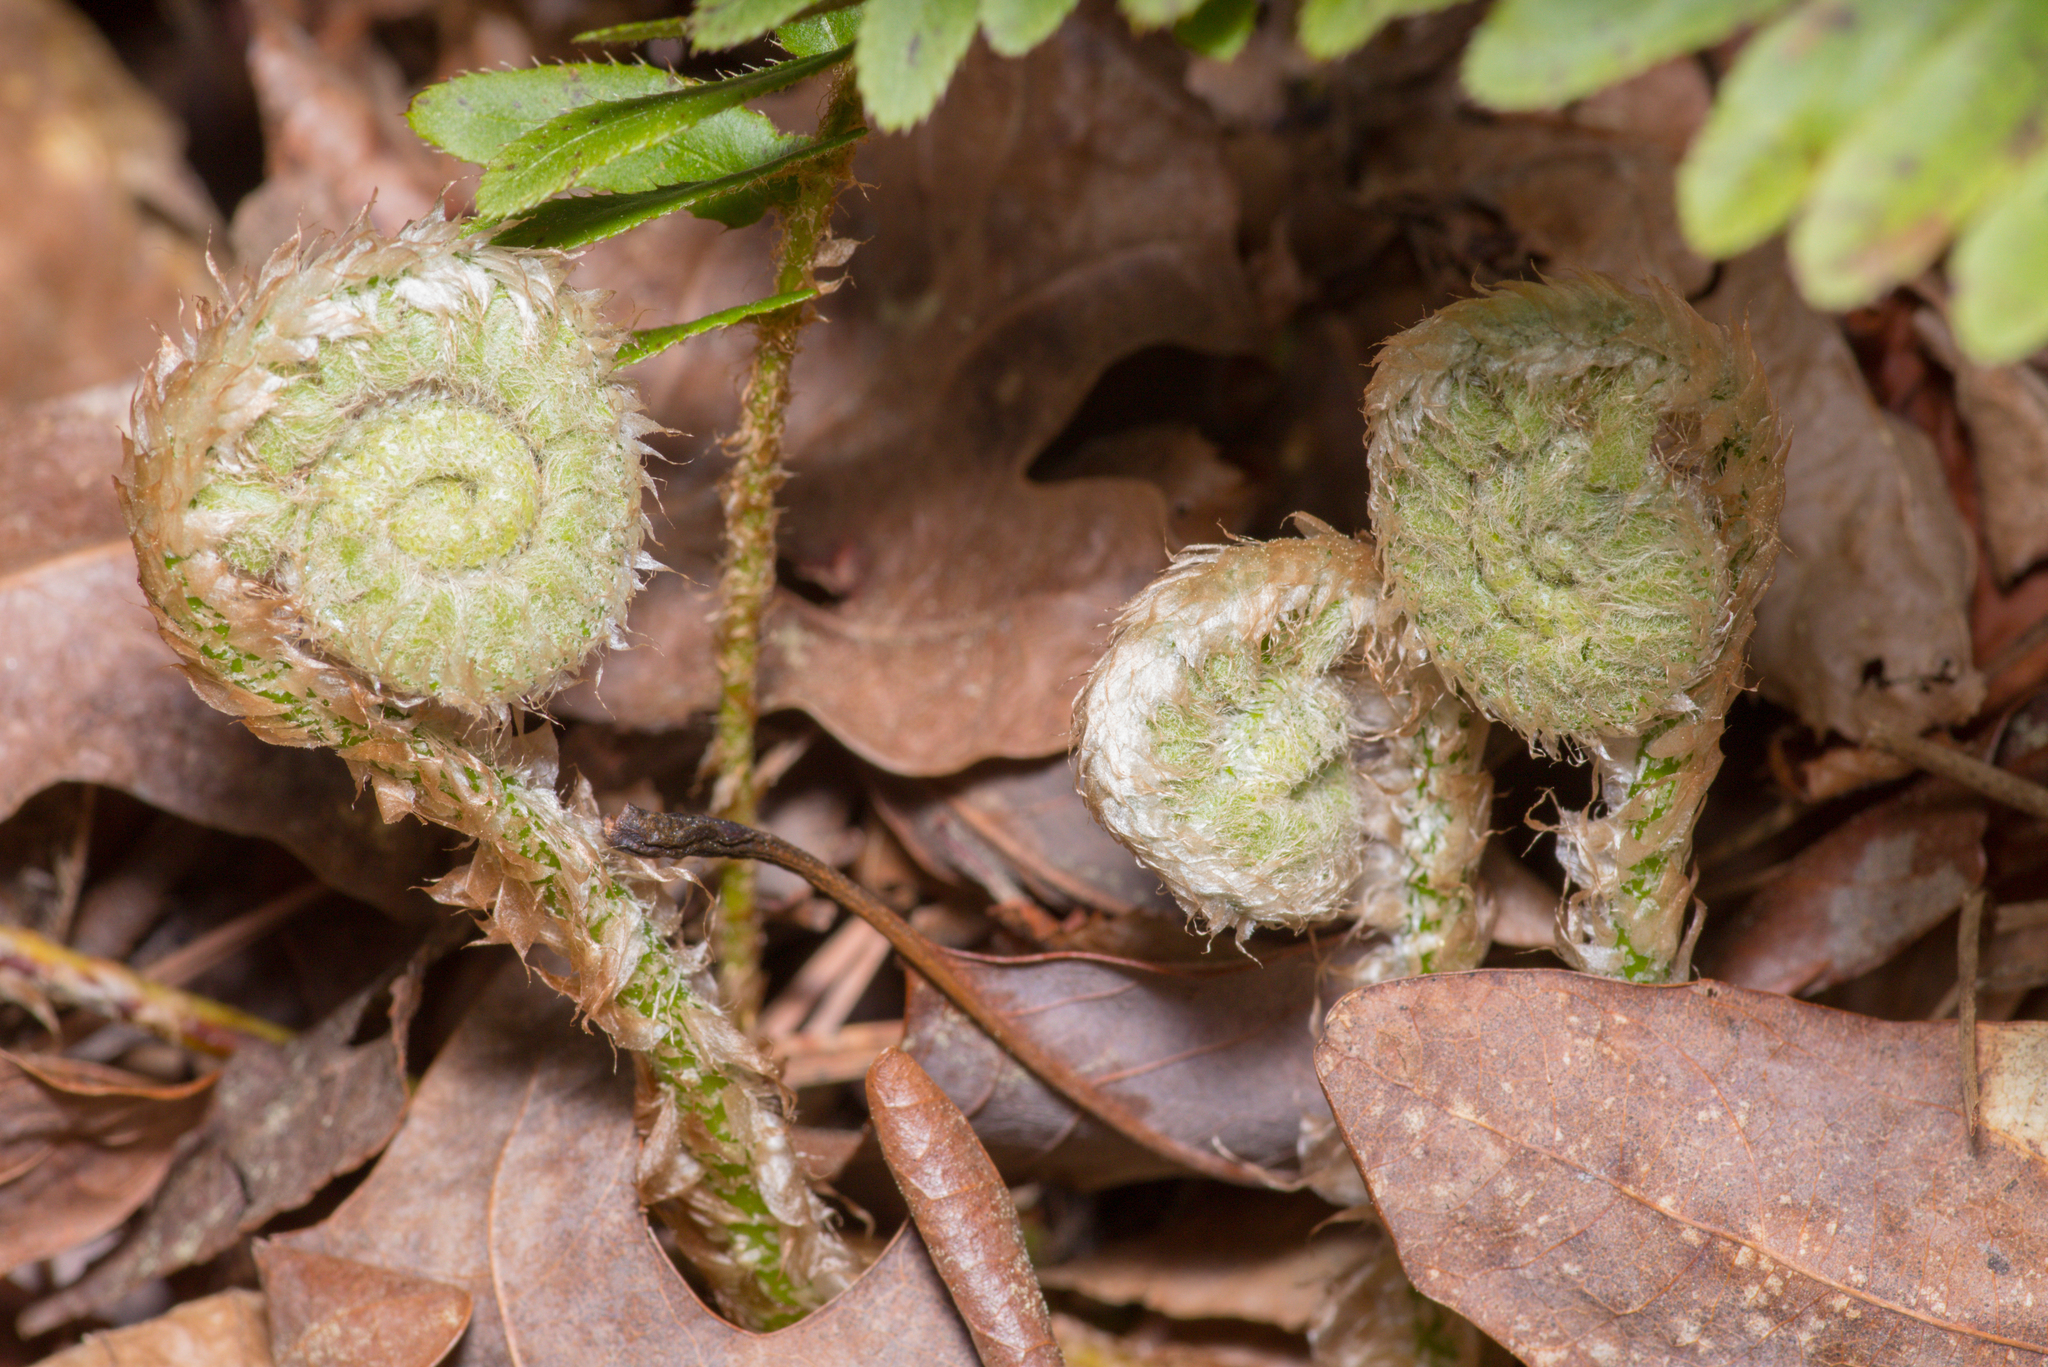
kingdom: Plantae
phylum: Tracheophyta
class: Polypodiopsida
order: Polypodiales
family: Dryopteridaceae
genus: Polystichum
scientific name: Polystichum acrostichoides
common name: Christmas fern
